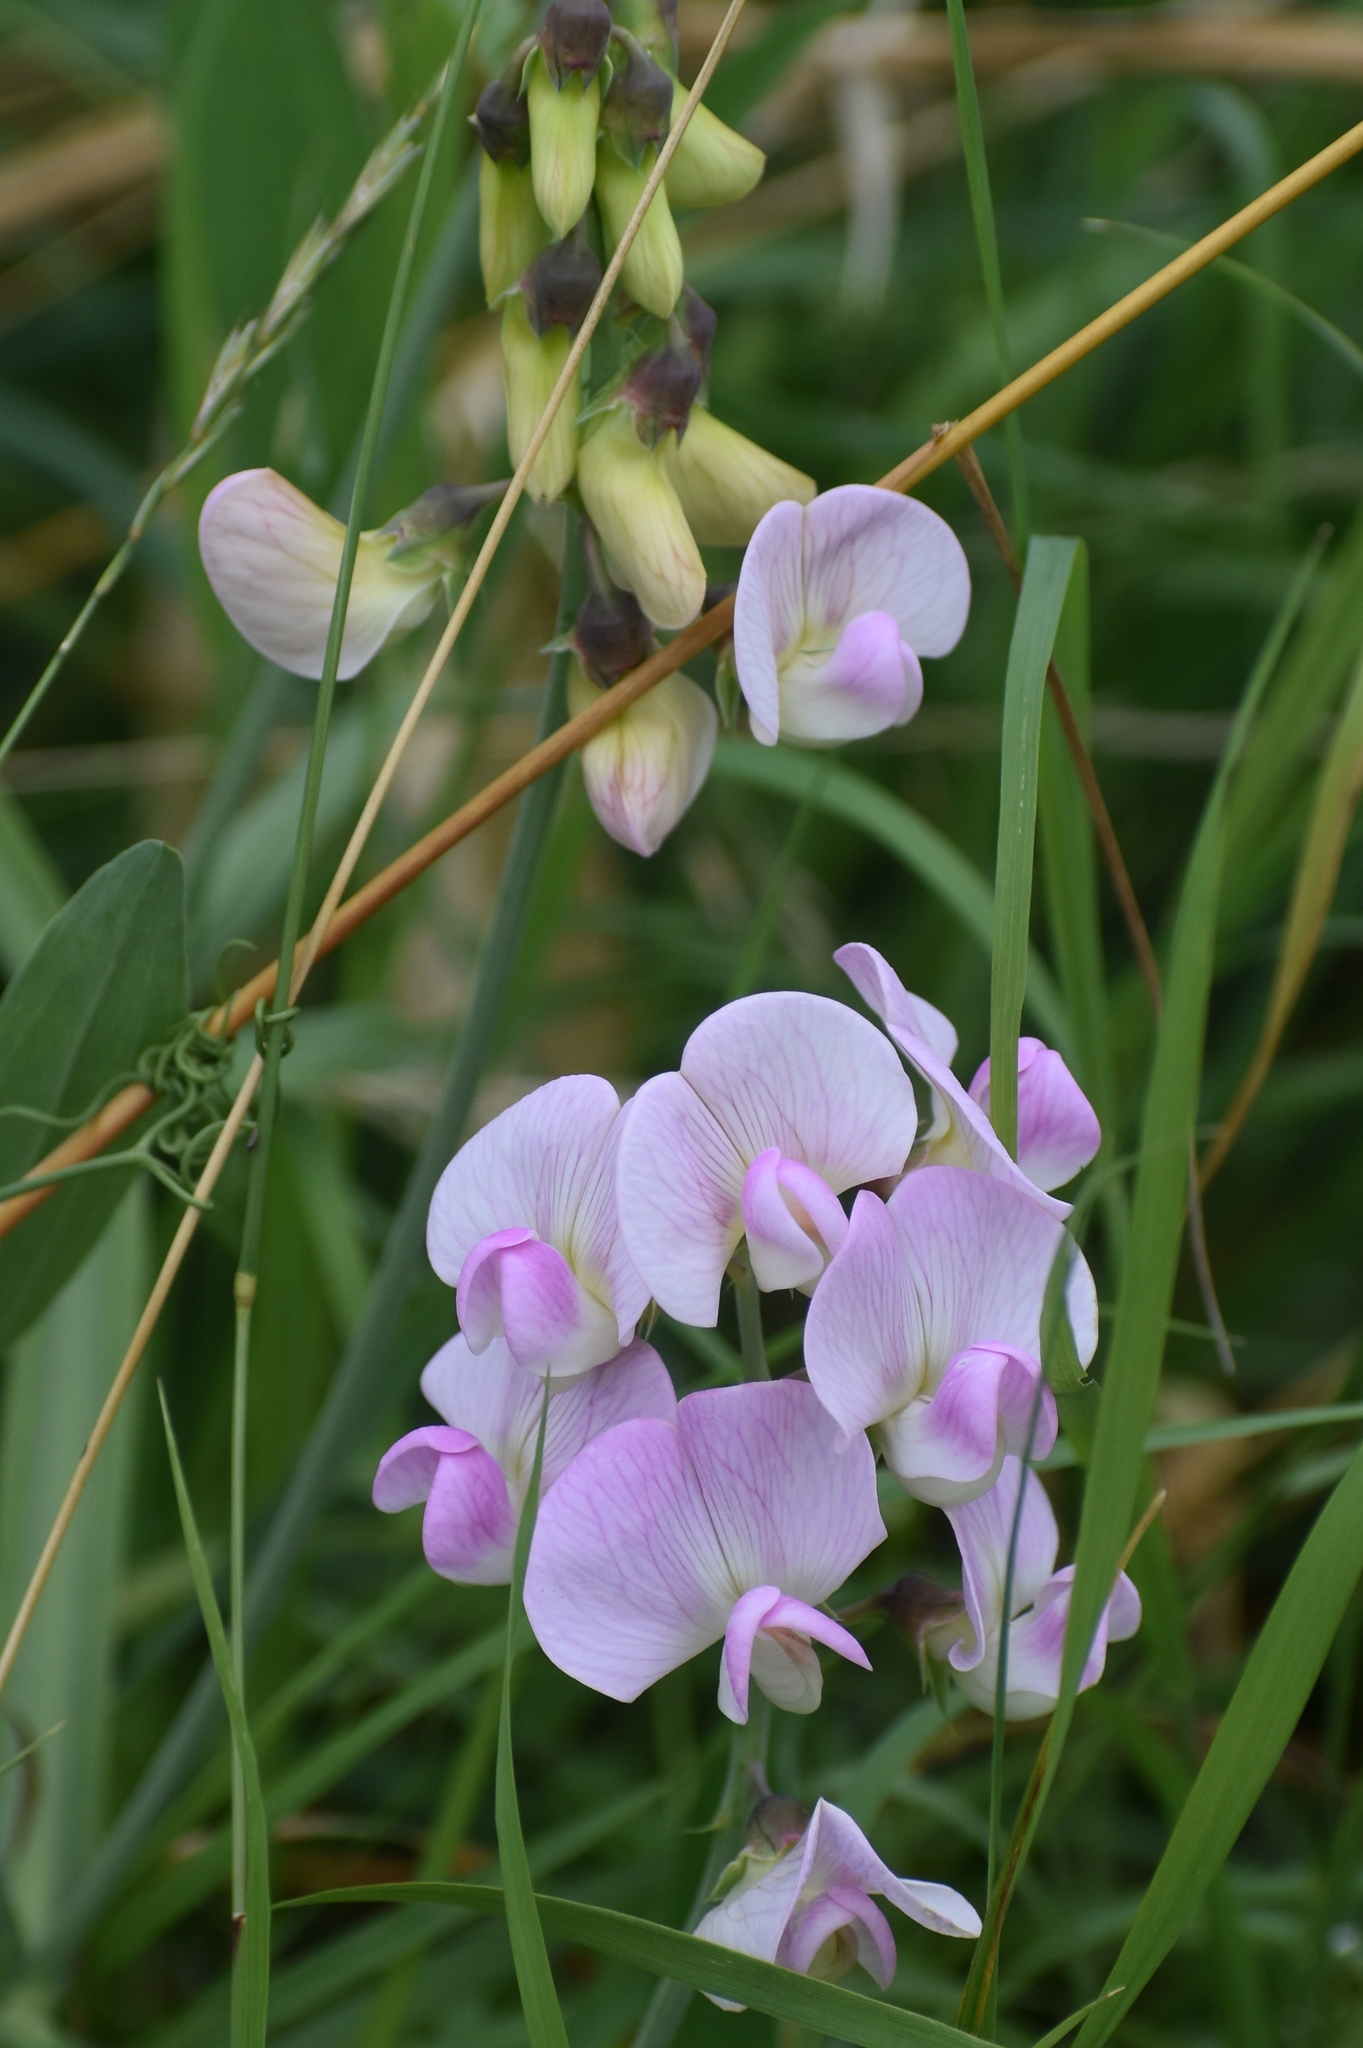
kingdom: Plantae
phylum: Tracheophyta
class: Magnoliopsida
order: Fabales
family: Fabaceae
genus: Lathyrus
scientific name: Lathyrus latifolius
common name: Perennial pea
